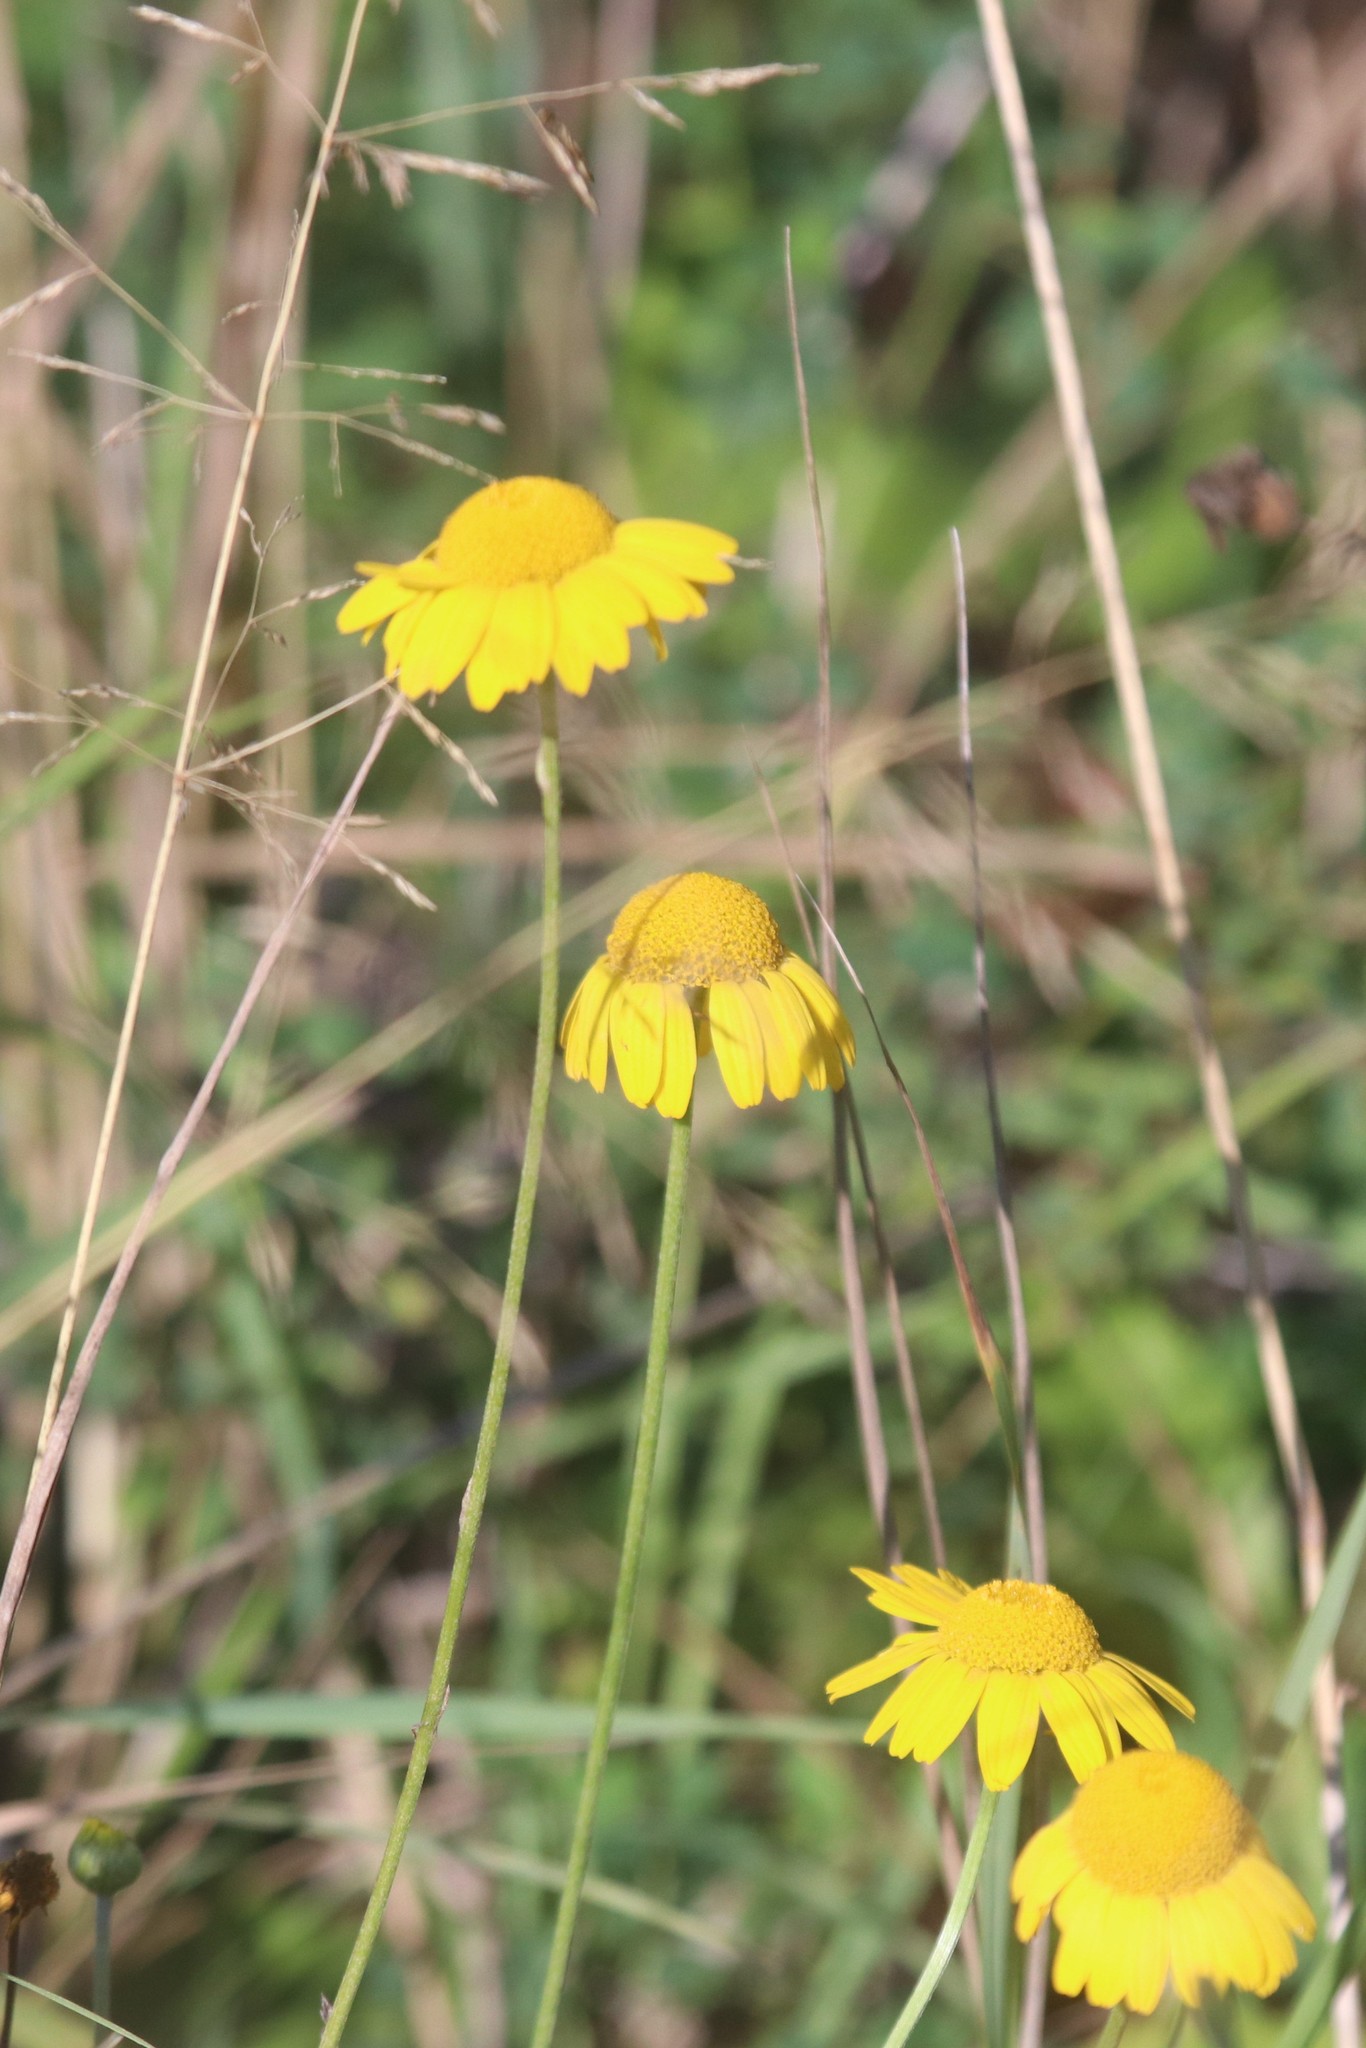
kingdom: Plantae
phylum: Tracheophyta
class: Magnoliopsida
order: Asterales
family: Asteraceae
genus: Cota
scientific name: Cota tinctoria
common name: Golden chamomile
